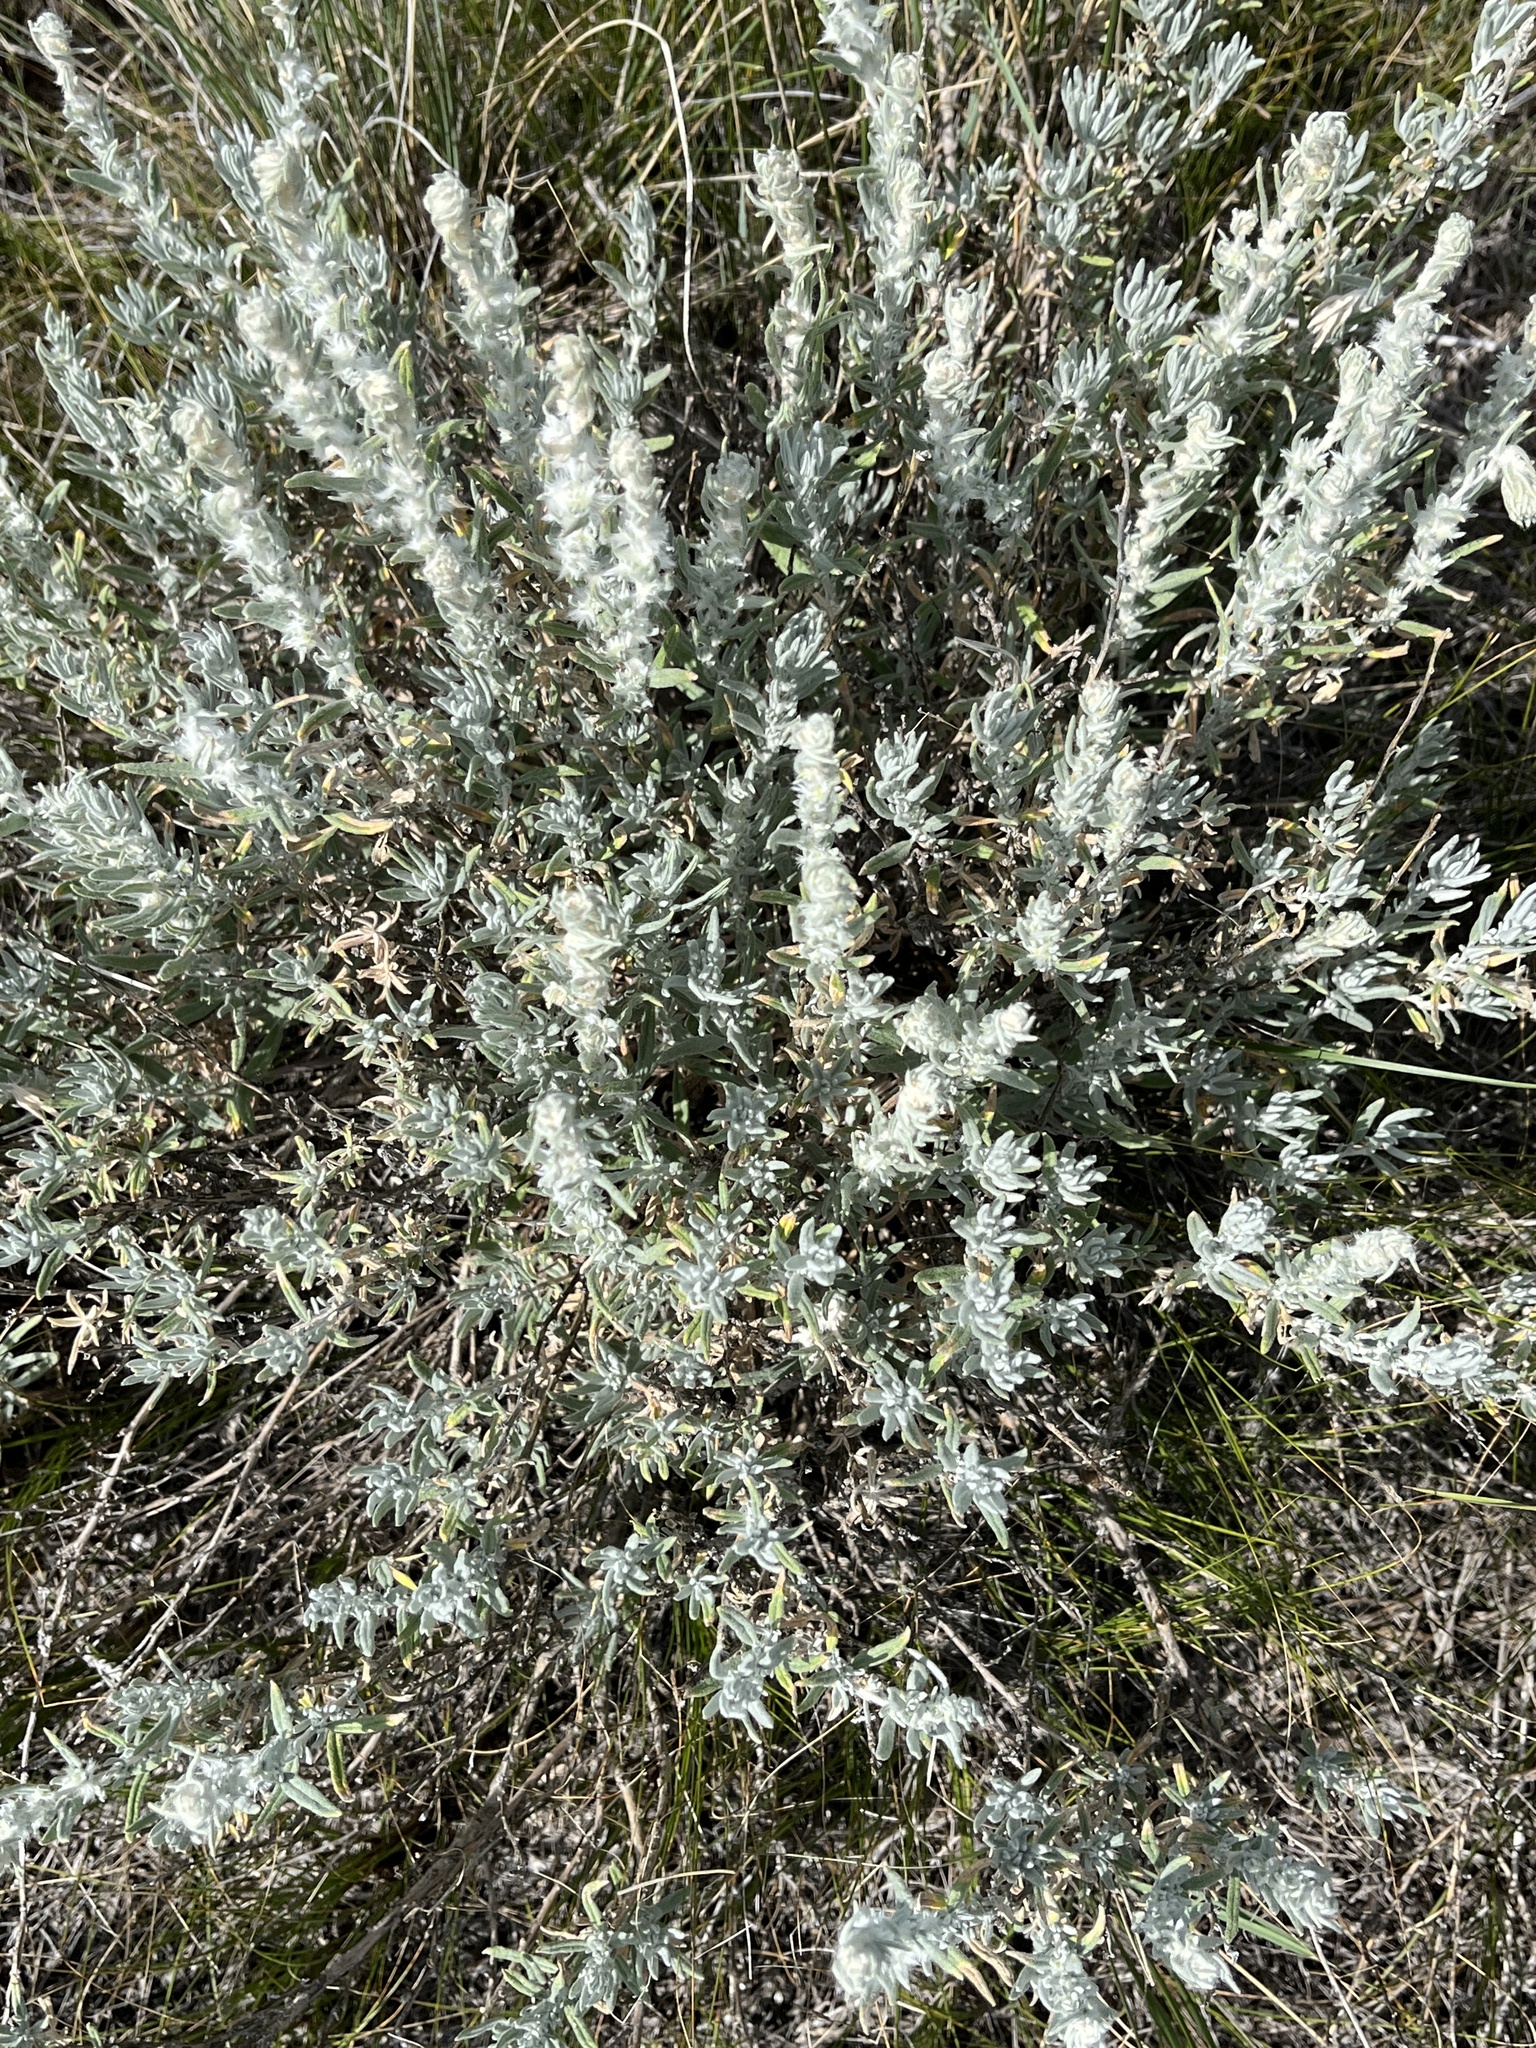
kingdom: Plantae
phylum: Tracheophyta
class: Magnoliopsida
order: Caryophyllales
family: Amaranthaceae
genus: Krascheninnikovia
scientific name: Krascheninnikovia lanata
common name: Winterfat
